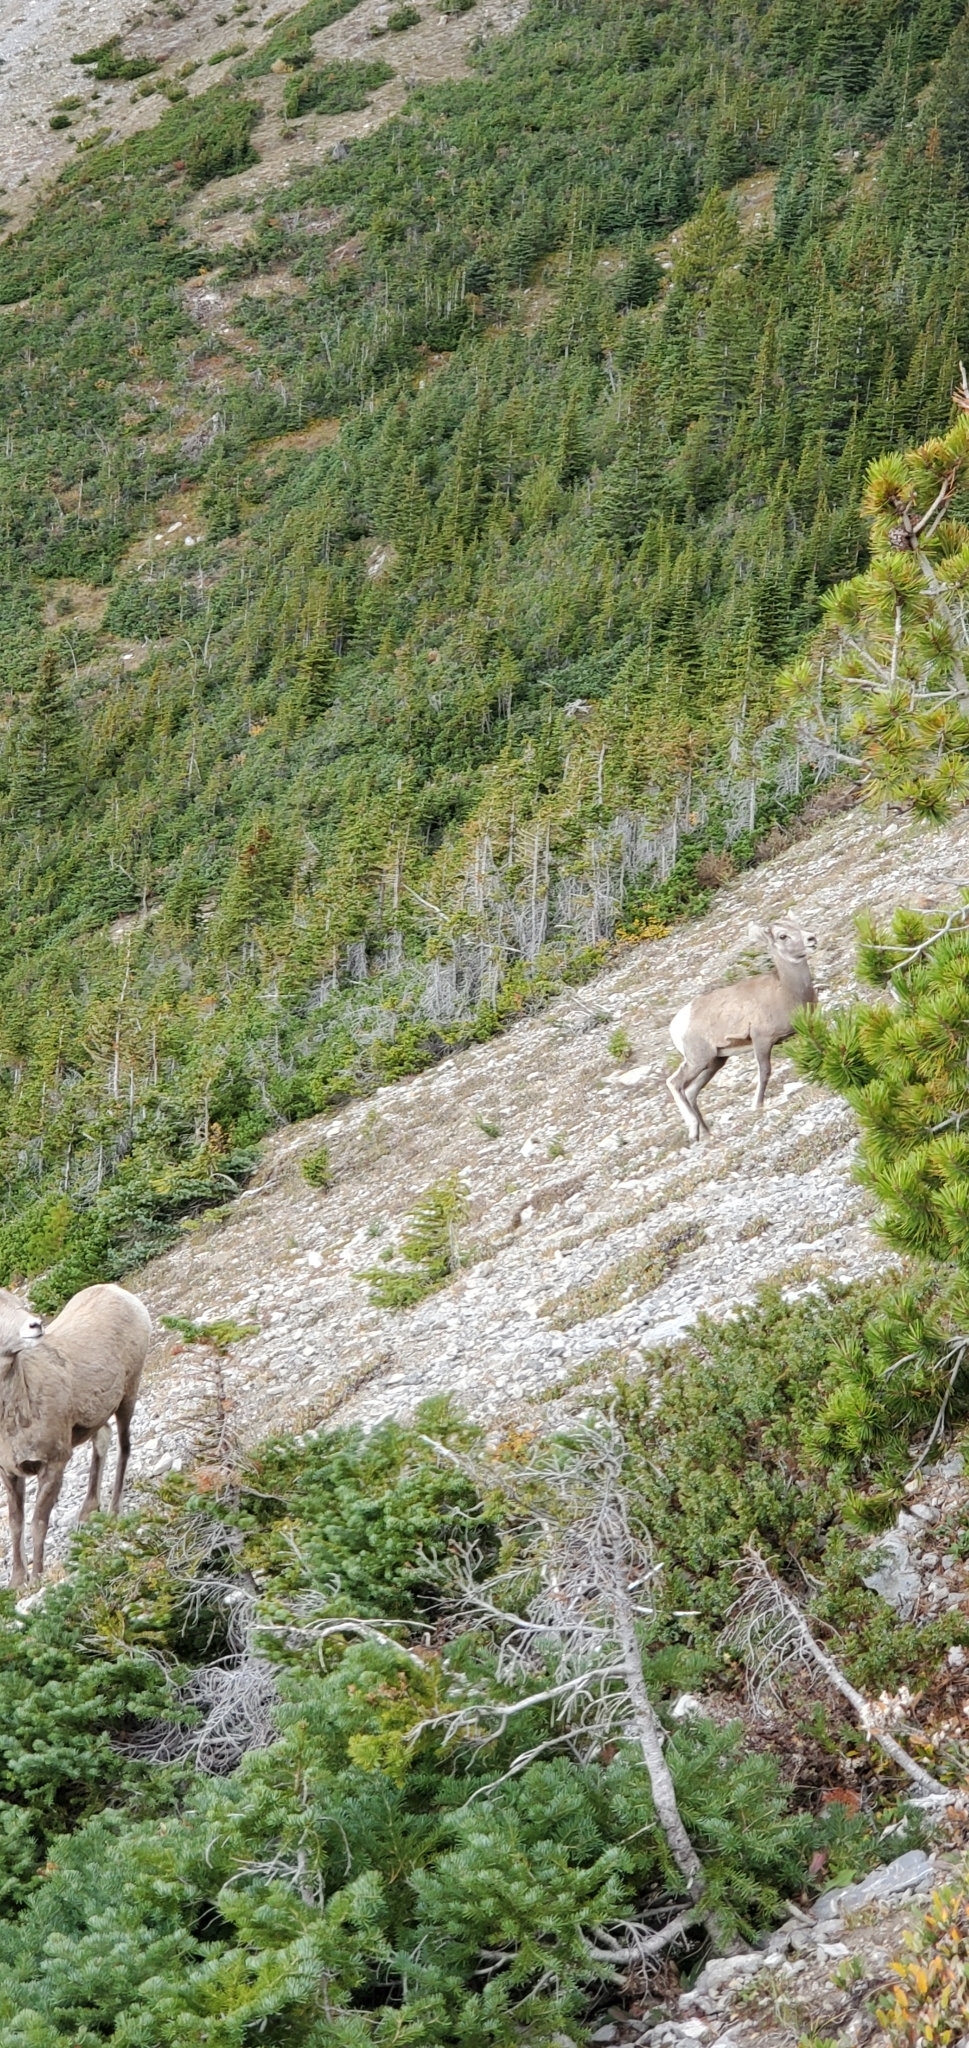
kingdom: Animalia
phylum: Chordata
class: Mammalia
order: Artiodactyla
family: Bovidae
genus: Ovis
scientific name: Ovis canadensis
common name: Bighorn sheep
